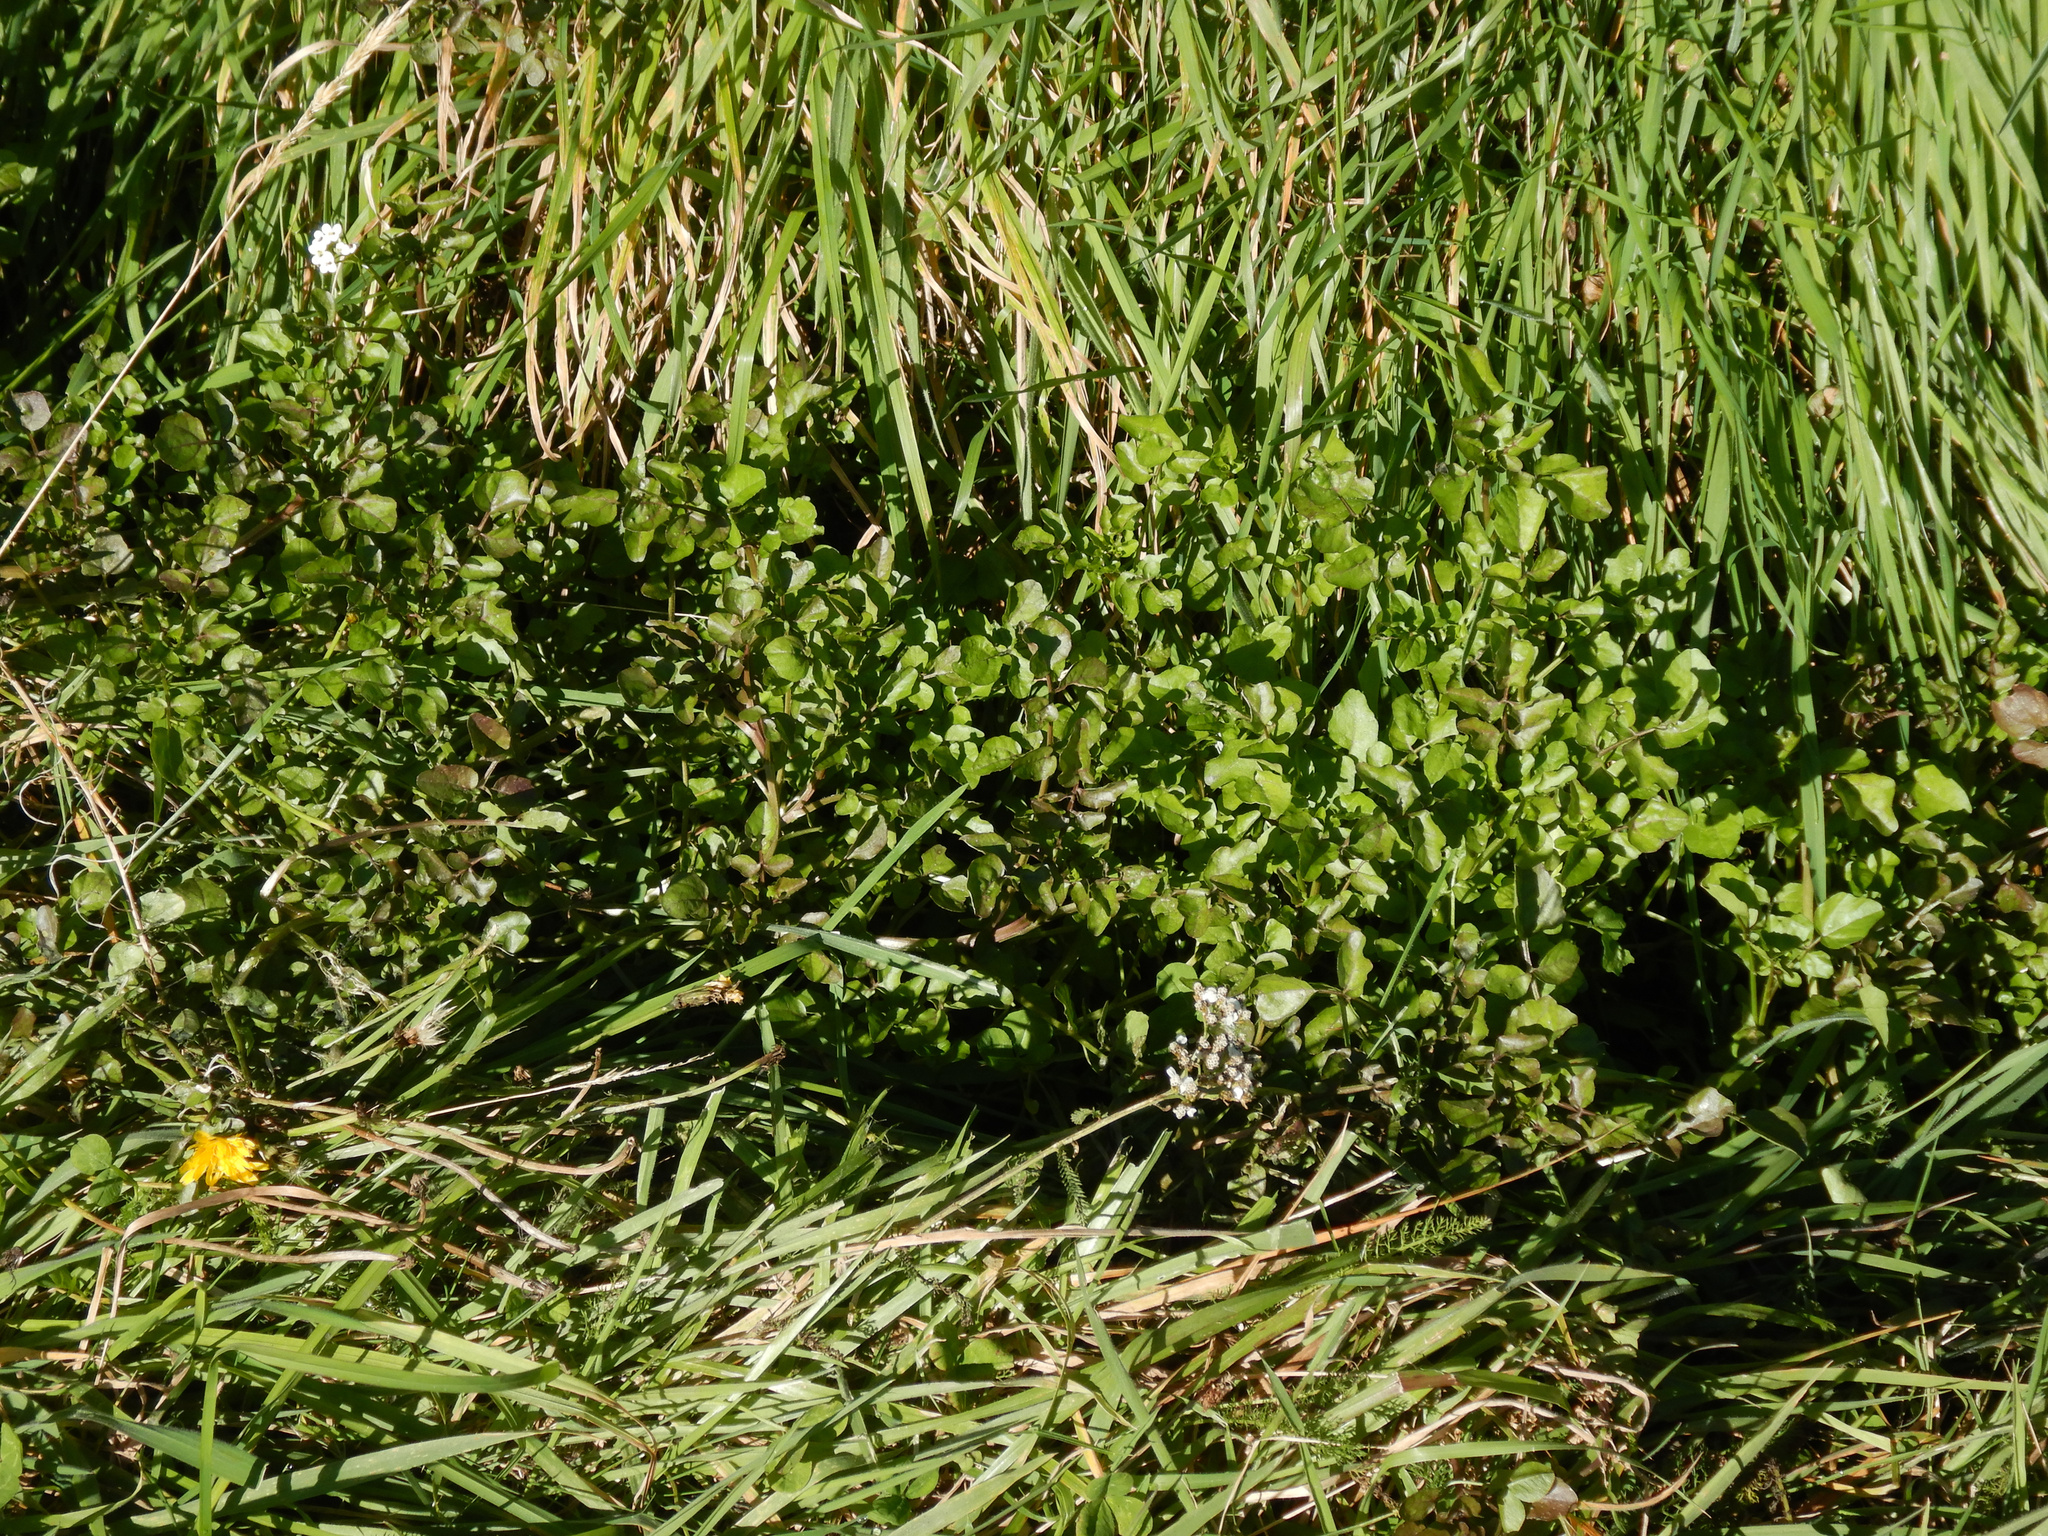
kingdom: Plantae
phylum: Tracheophyta
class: Magnoliopsida
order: Brassicales
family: Brassicaceae
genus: Nasturtium
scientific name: Nasturtium officinale
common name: Watercress
